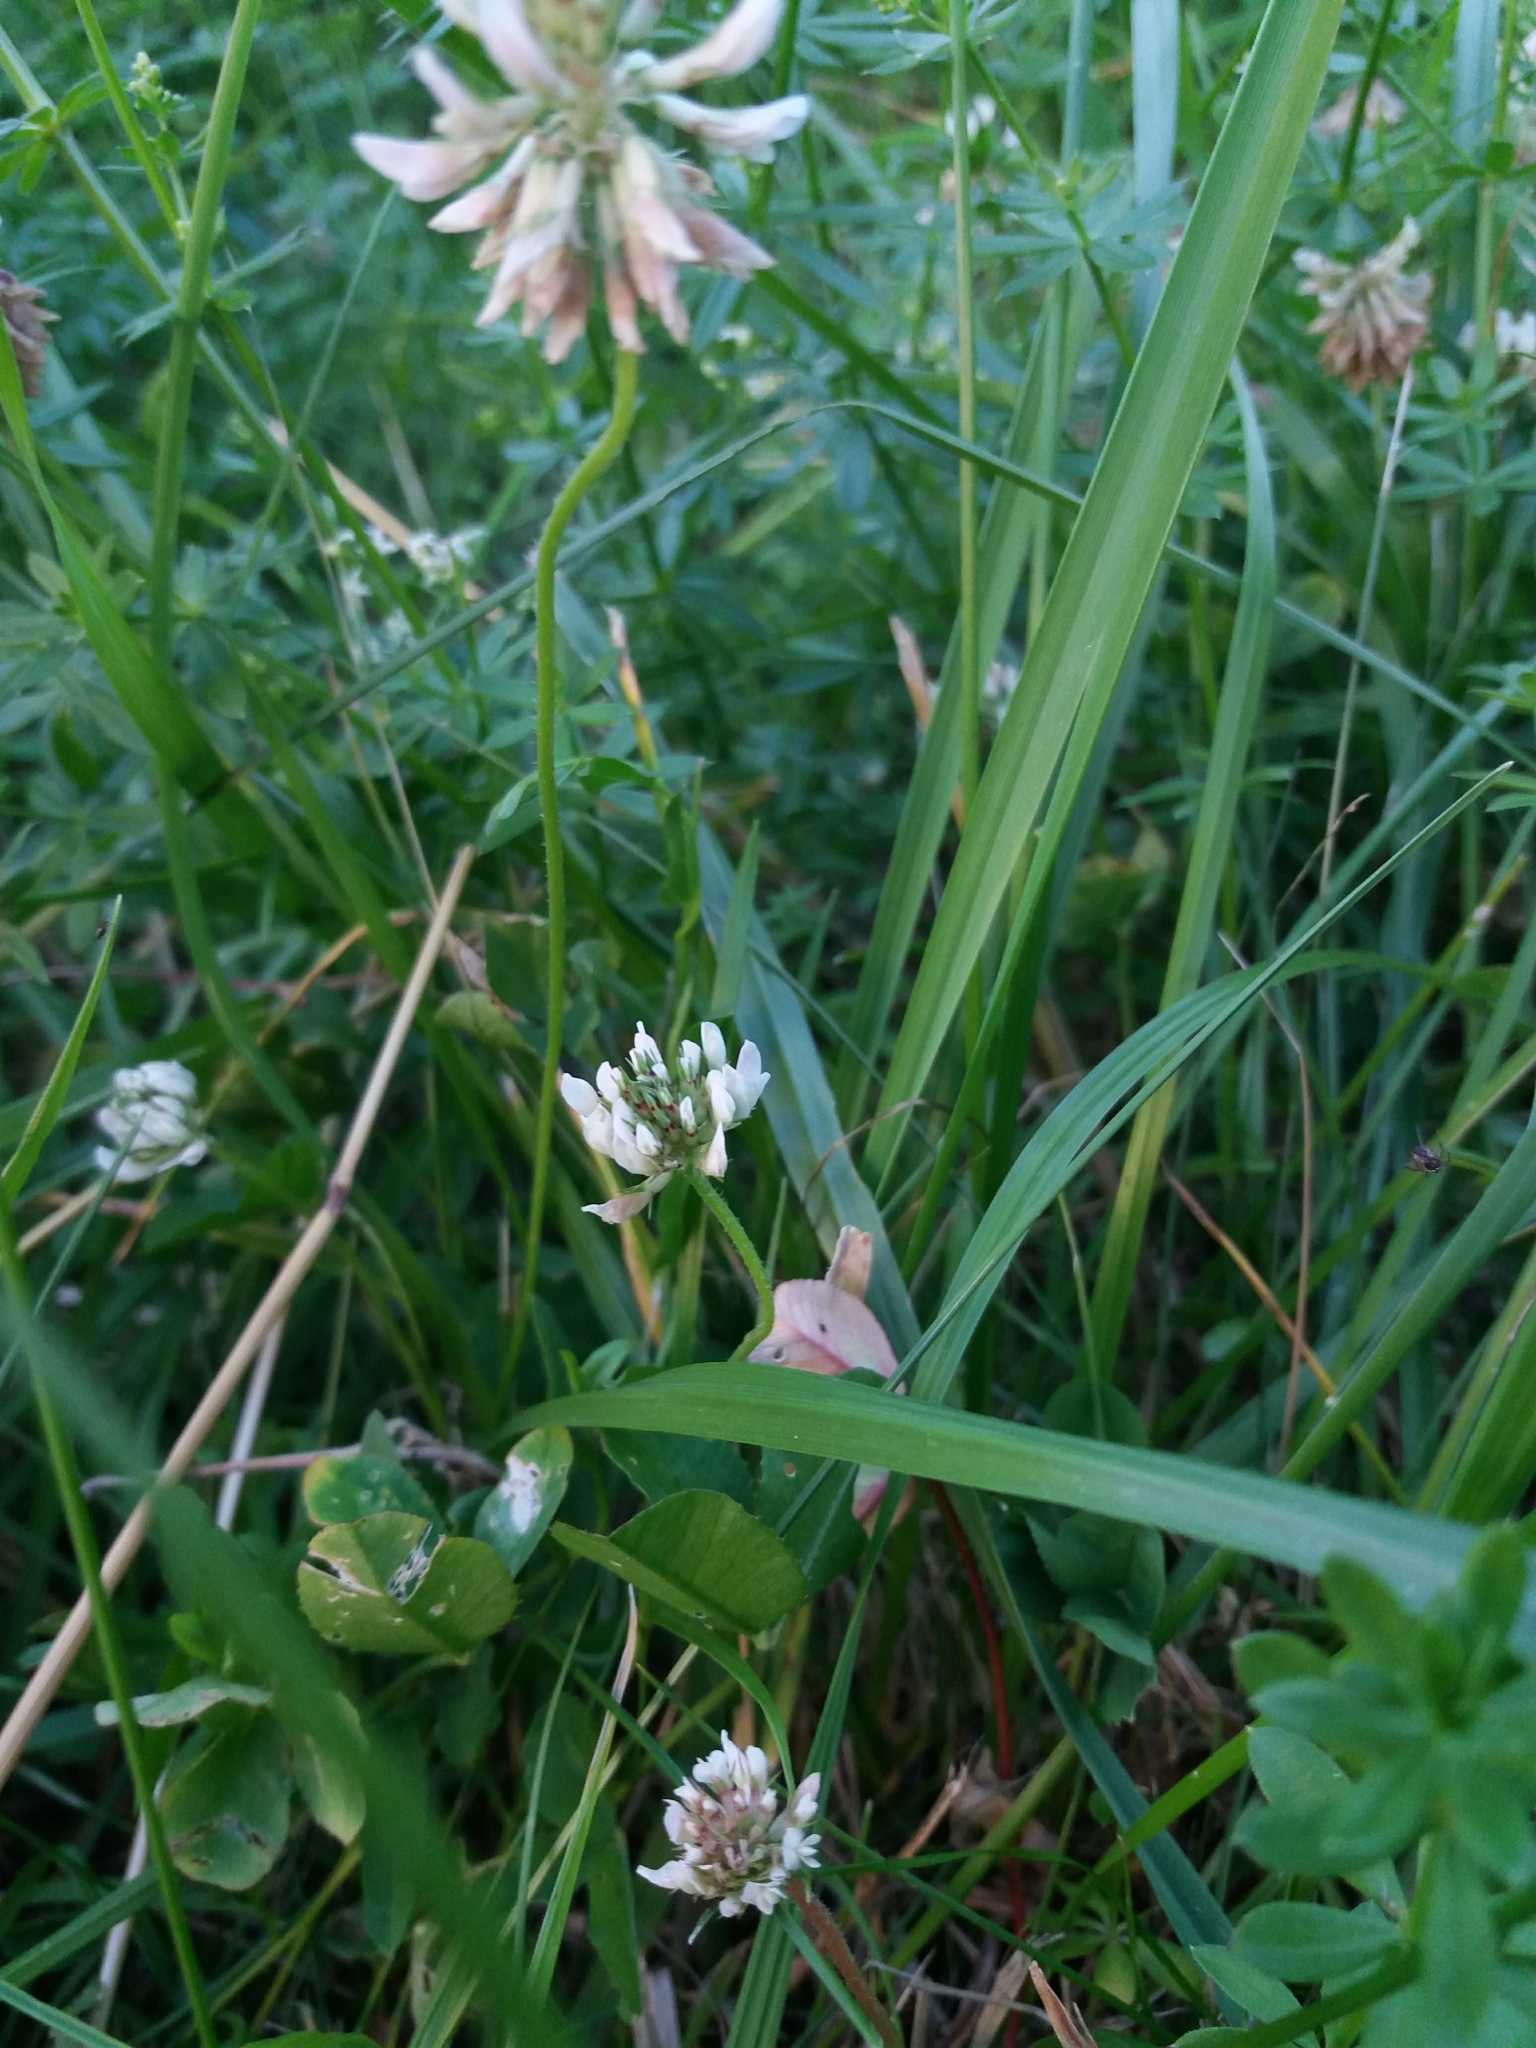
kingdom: Plantae
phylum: Tracheophyta
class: Magnoliopsida
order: Fabales
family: Fabaceae
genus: Trifolium
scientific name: Trifolium repens
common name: White clover
